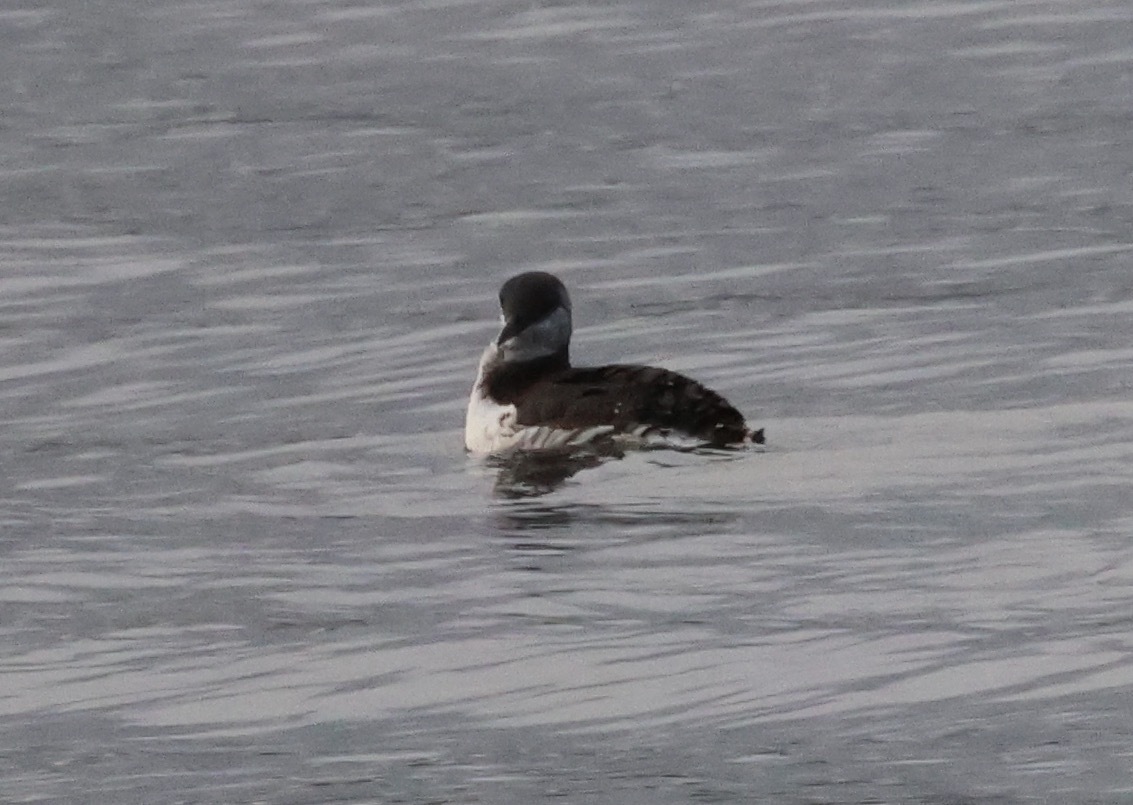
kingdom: Animalia
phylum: Chordata
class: Aves
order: Charadriiformes
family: Alcidae
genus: Uria
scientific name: Uria aalge
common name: Common murre
